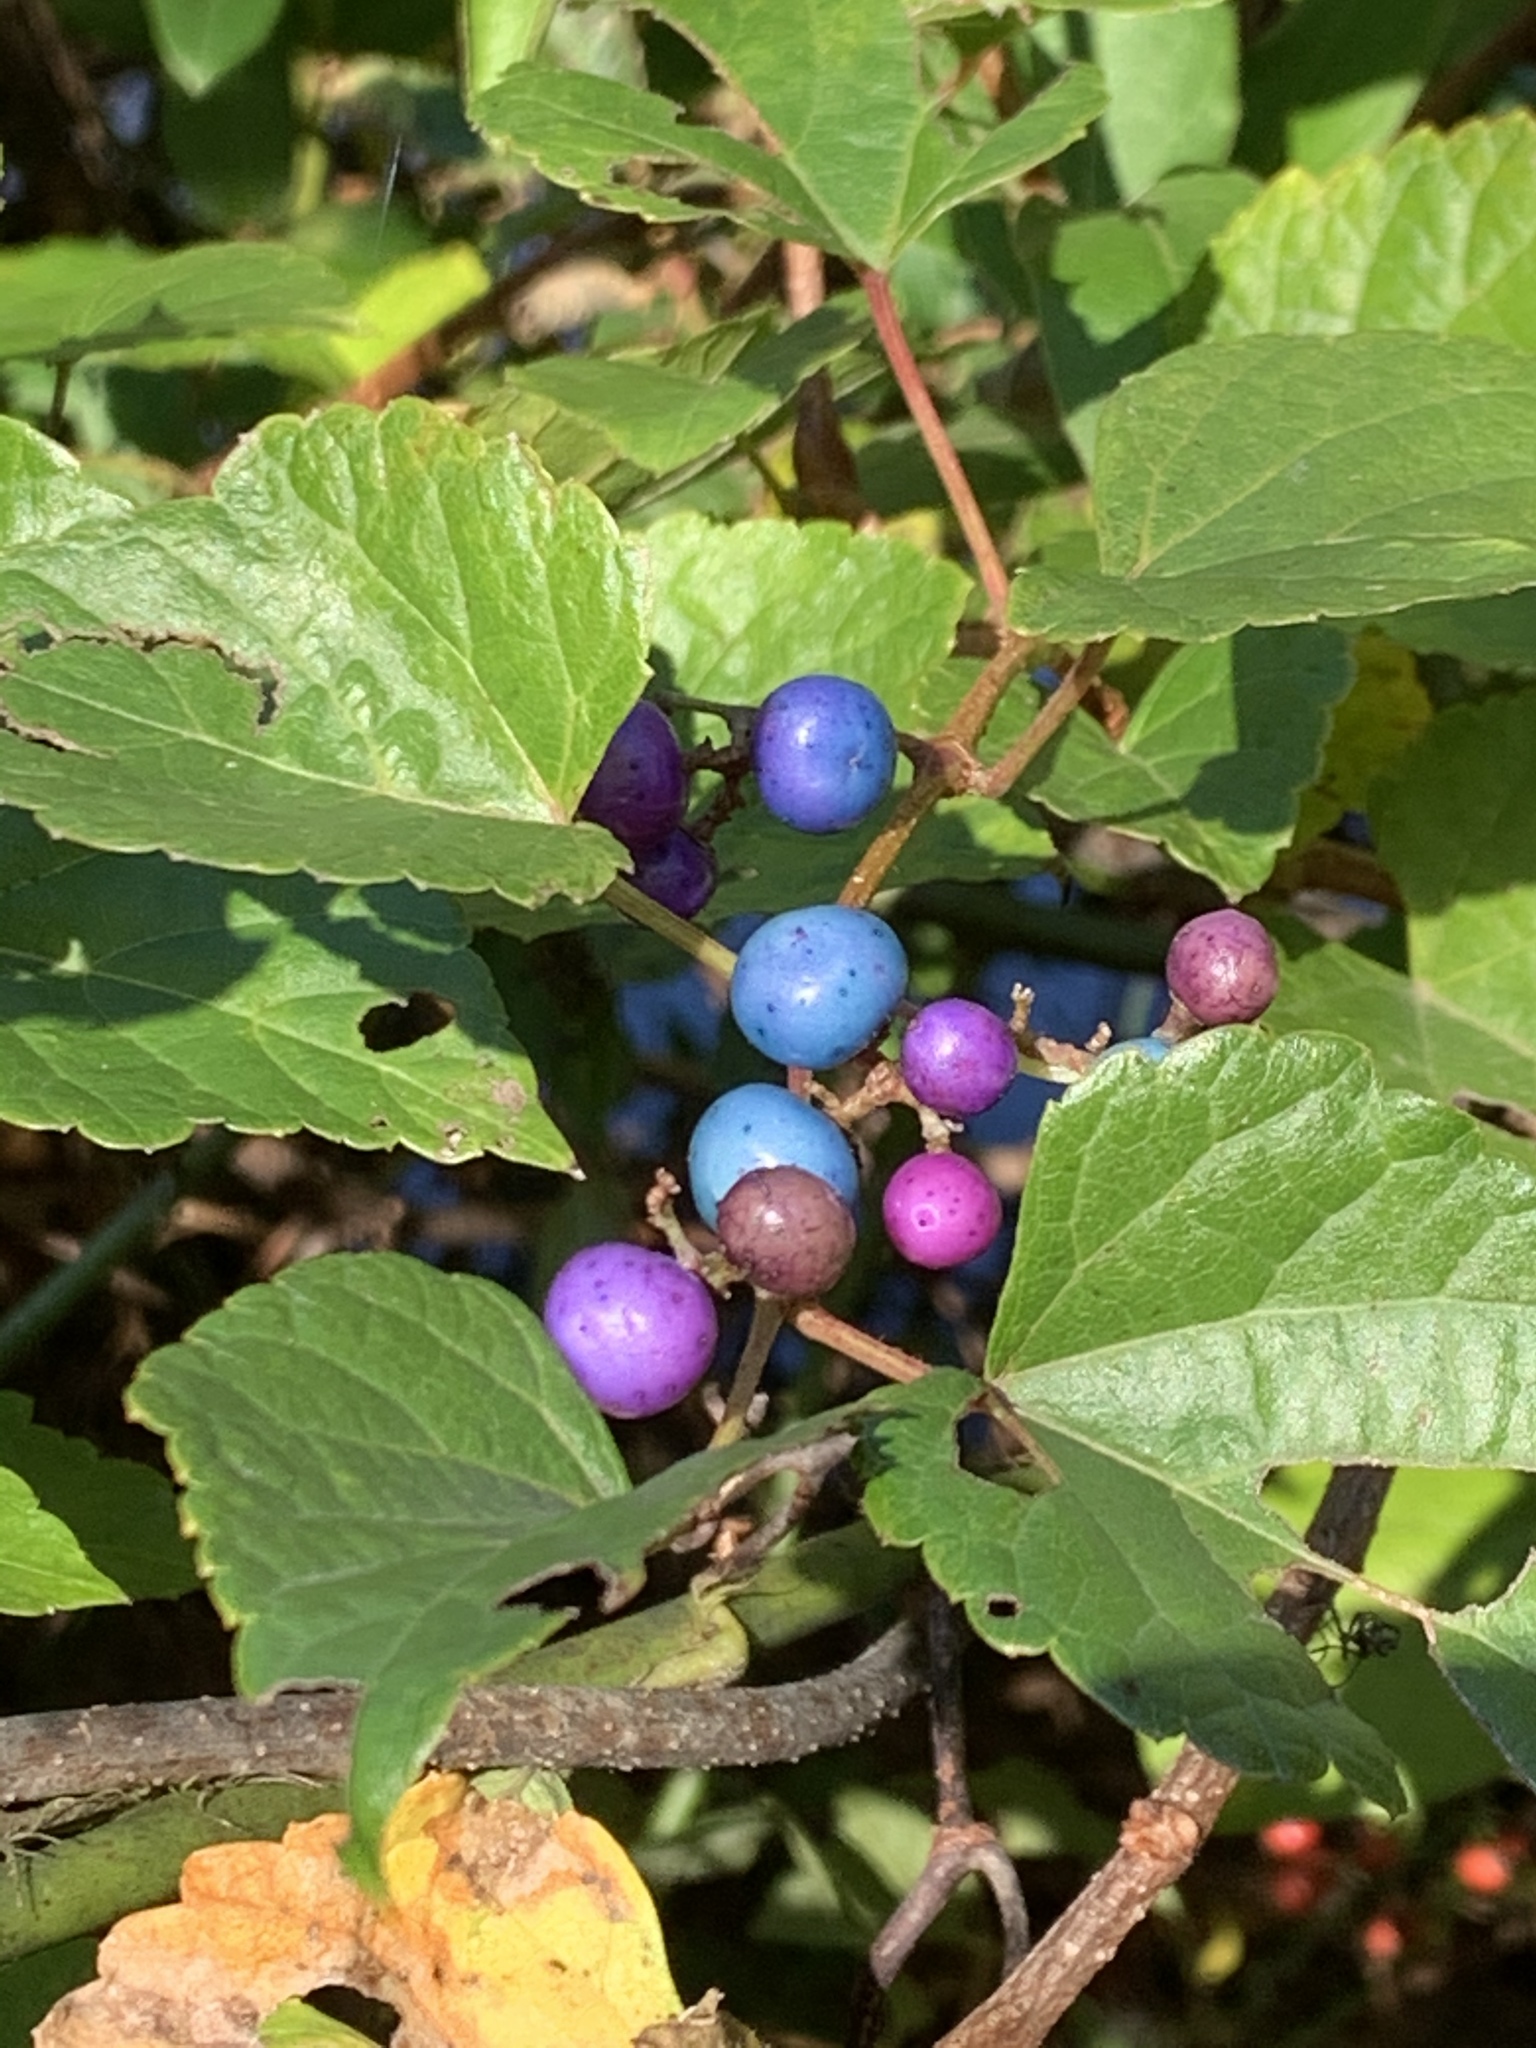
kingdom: Plantae
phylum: Tracheophyta
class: Magnoliopsida
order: Vitales
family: Vitaceae
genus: Ampelopsis
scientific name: Ampelopsis glandulosa
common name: Amur peppervine
